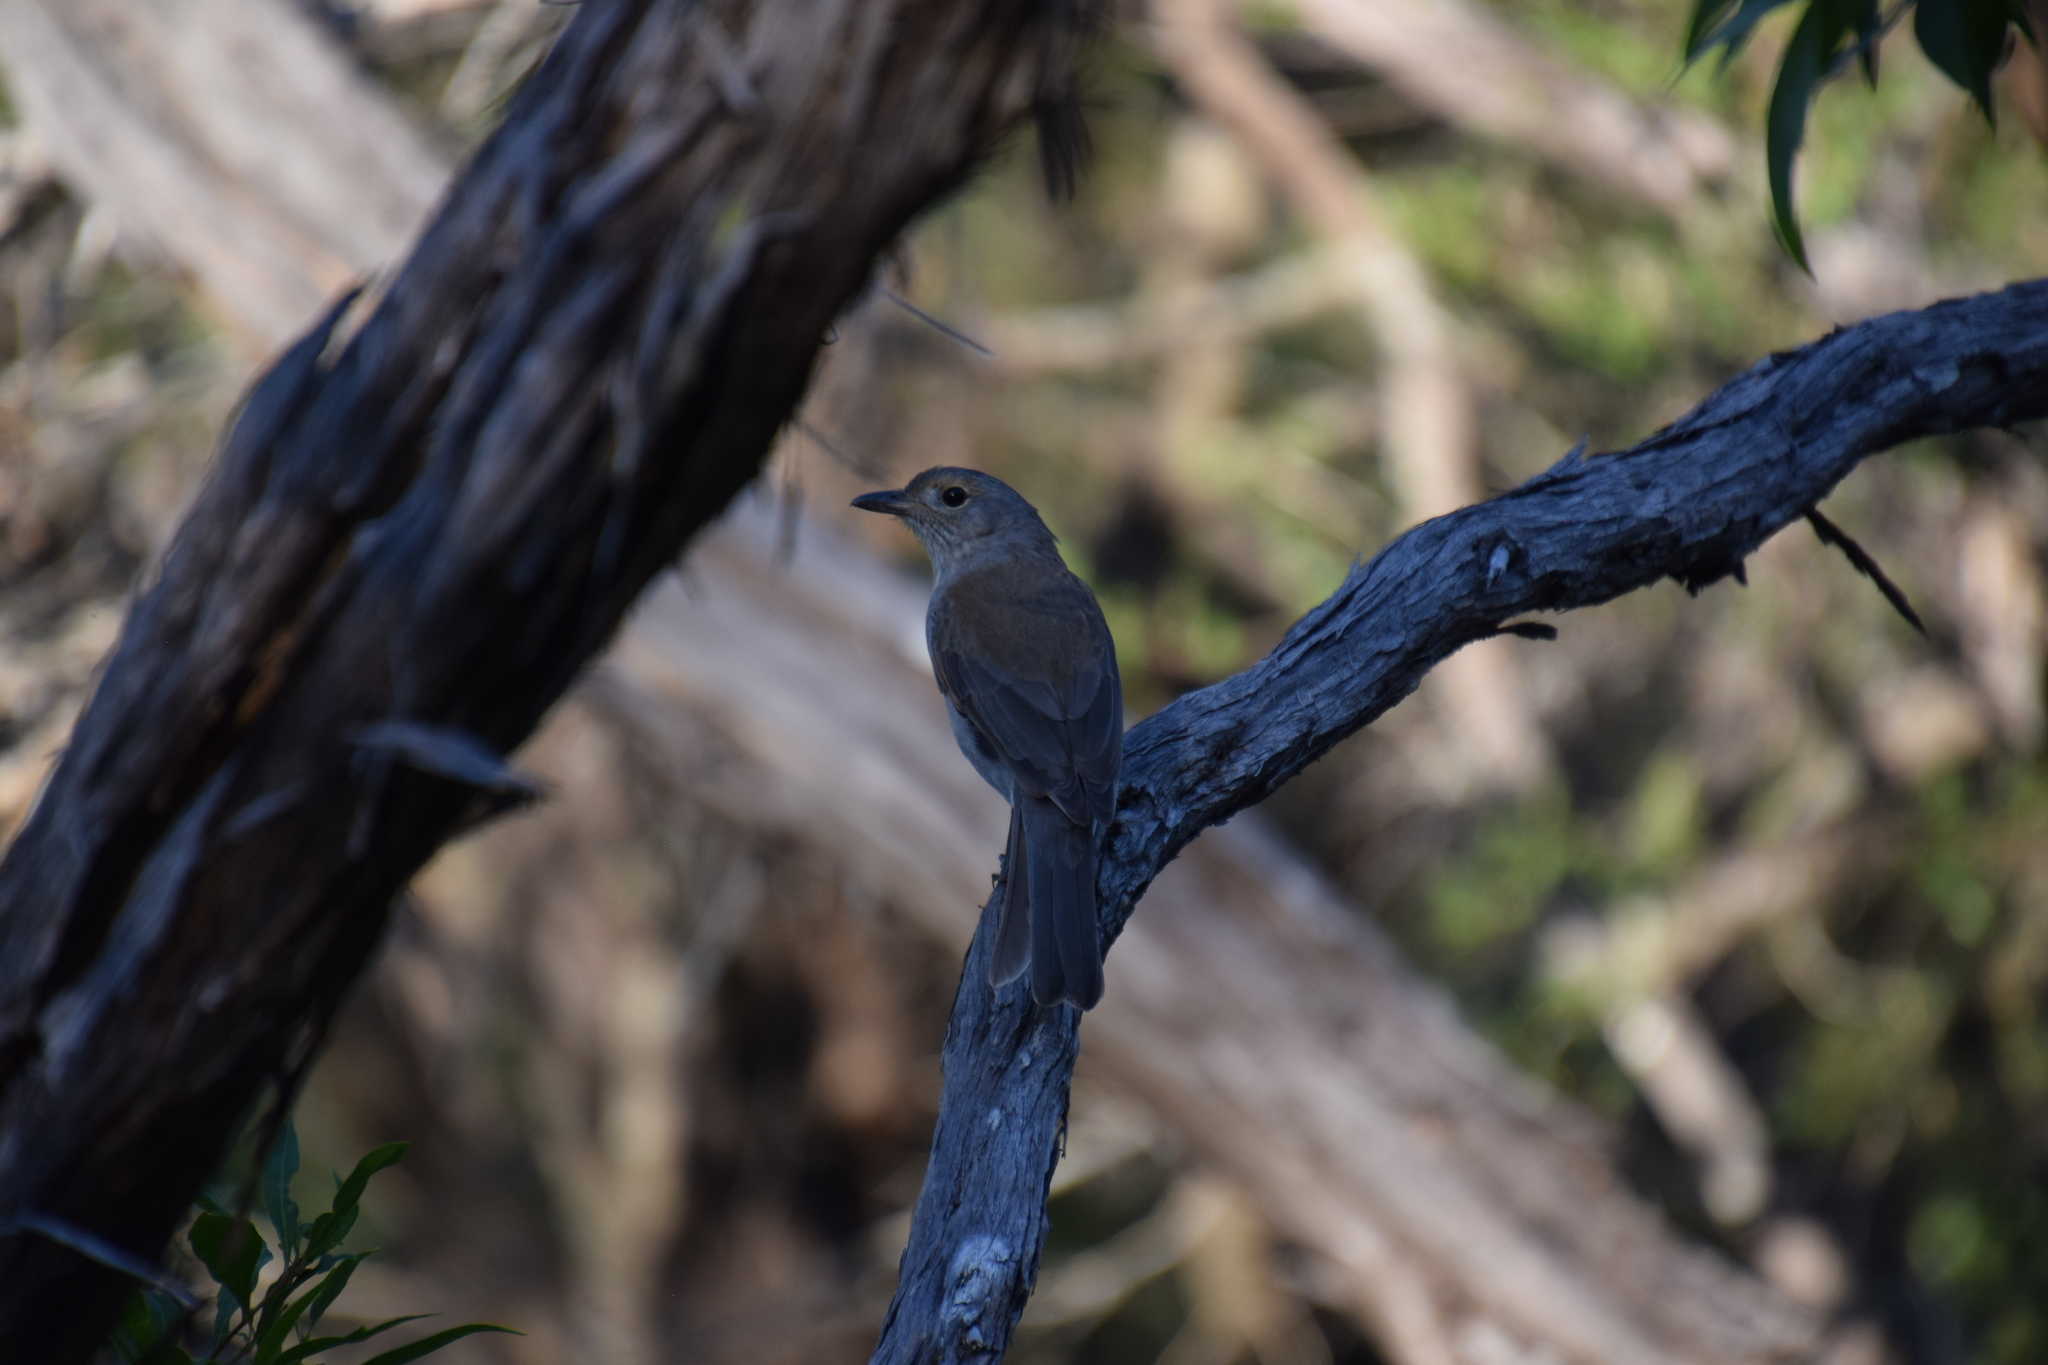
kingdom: Animalia
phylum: Chordata
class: Aves
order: Passeriformes
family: Pachycephalidae
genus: Colluricincla
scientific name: Colluricincla harmonica
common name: Grey shrikethrush
